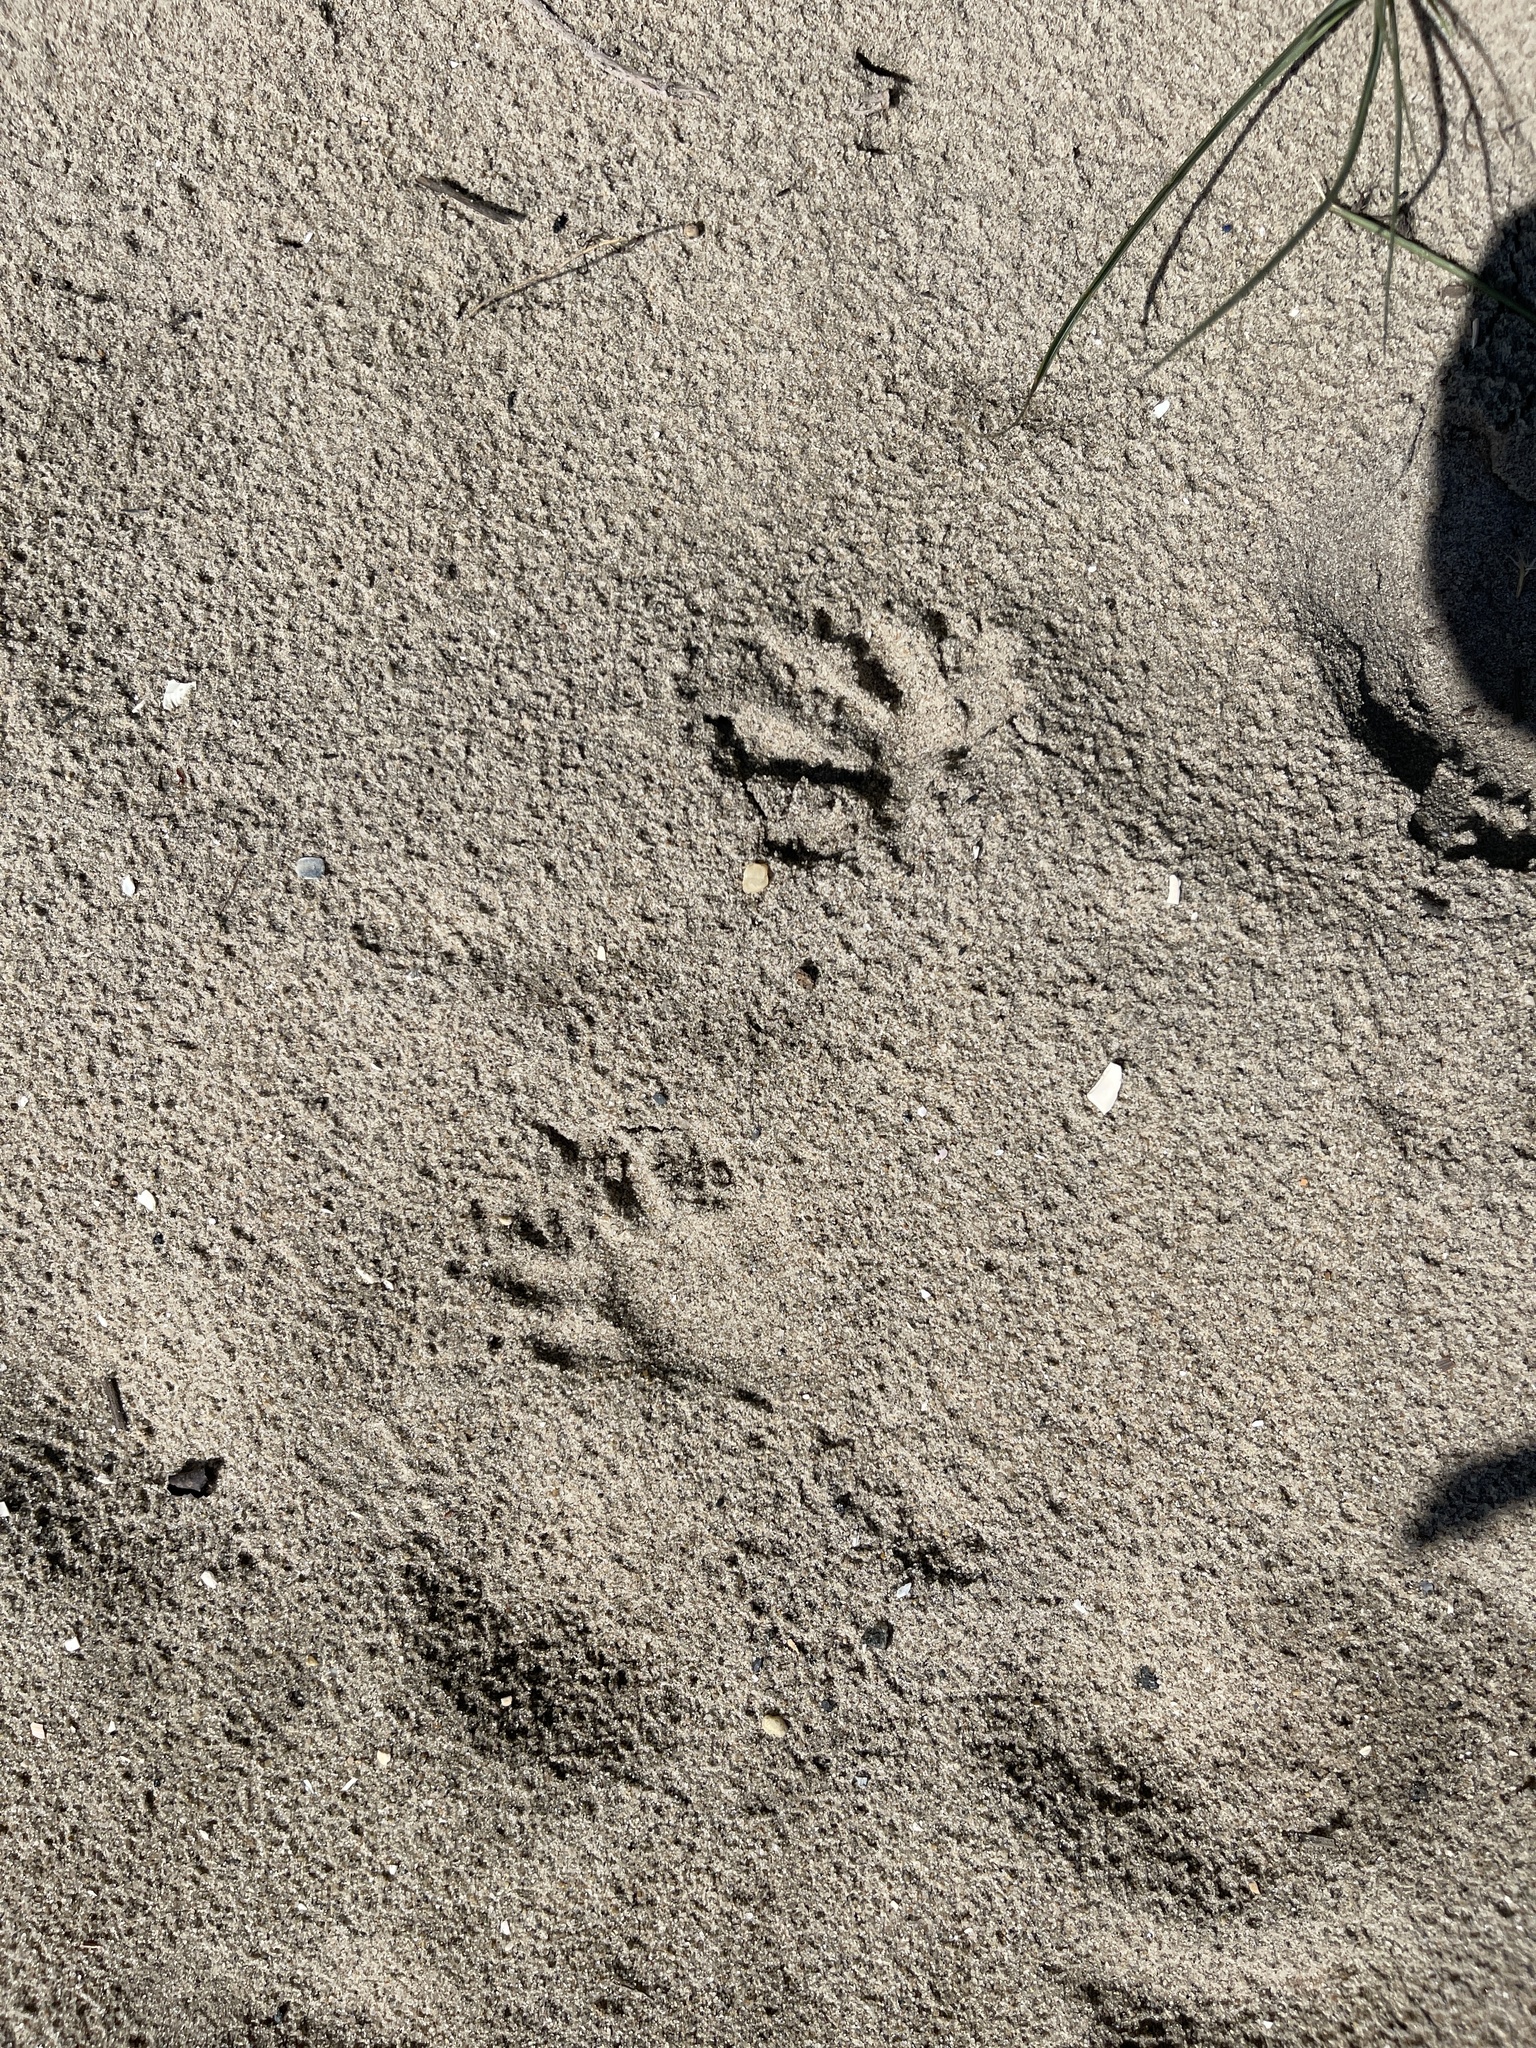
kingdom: Animalia
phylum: Chordata
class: Mammalia
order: Carnivora
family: Procyonidae
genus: Procyon
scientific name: Procyon lotor
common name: Raccoon
